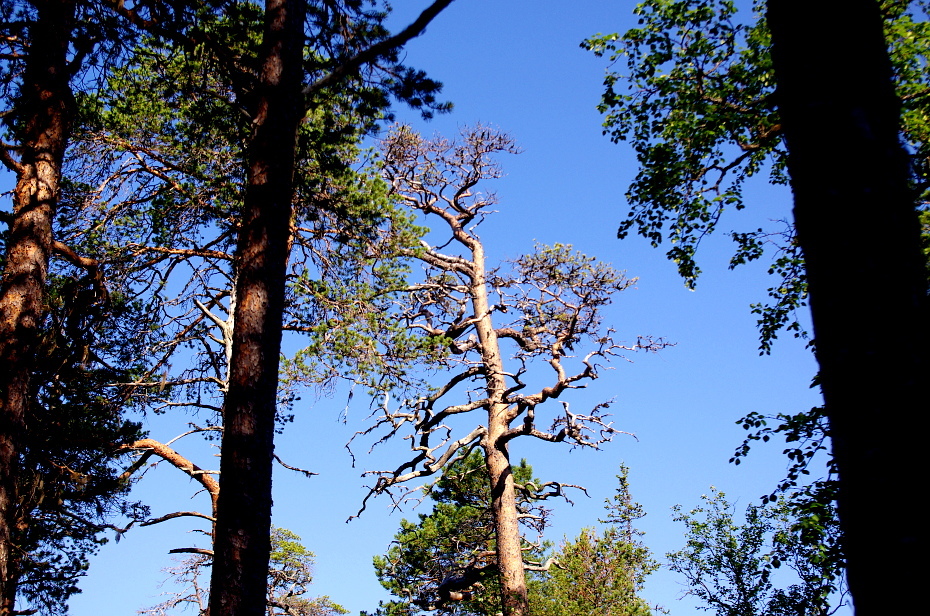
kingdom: Plantae
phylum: Tracheophyta
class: Pinopsida
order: Pinales
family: Pinaceae
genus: Pinus
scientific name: Pinus sylvestris
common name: Scots pine
